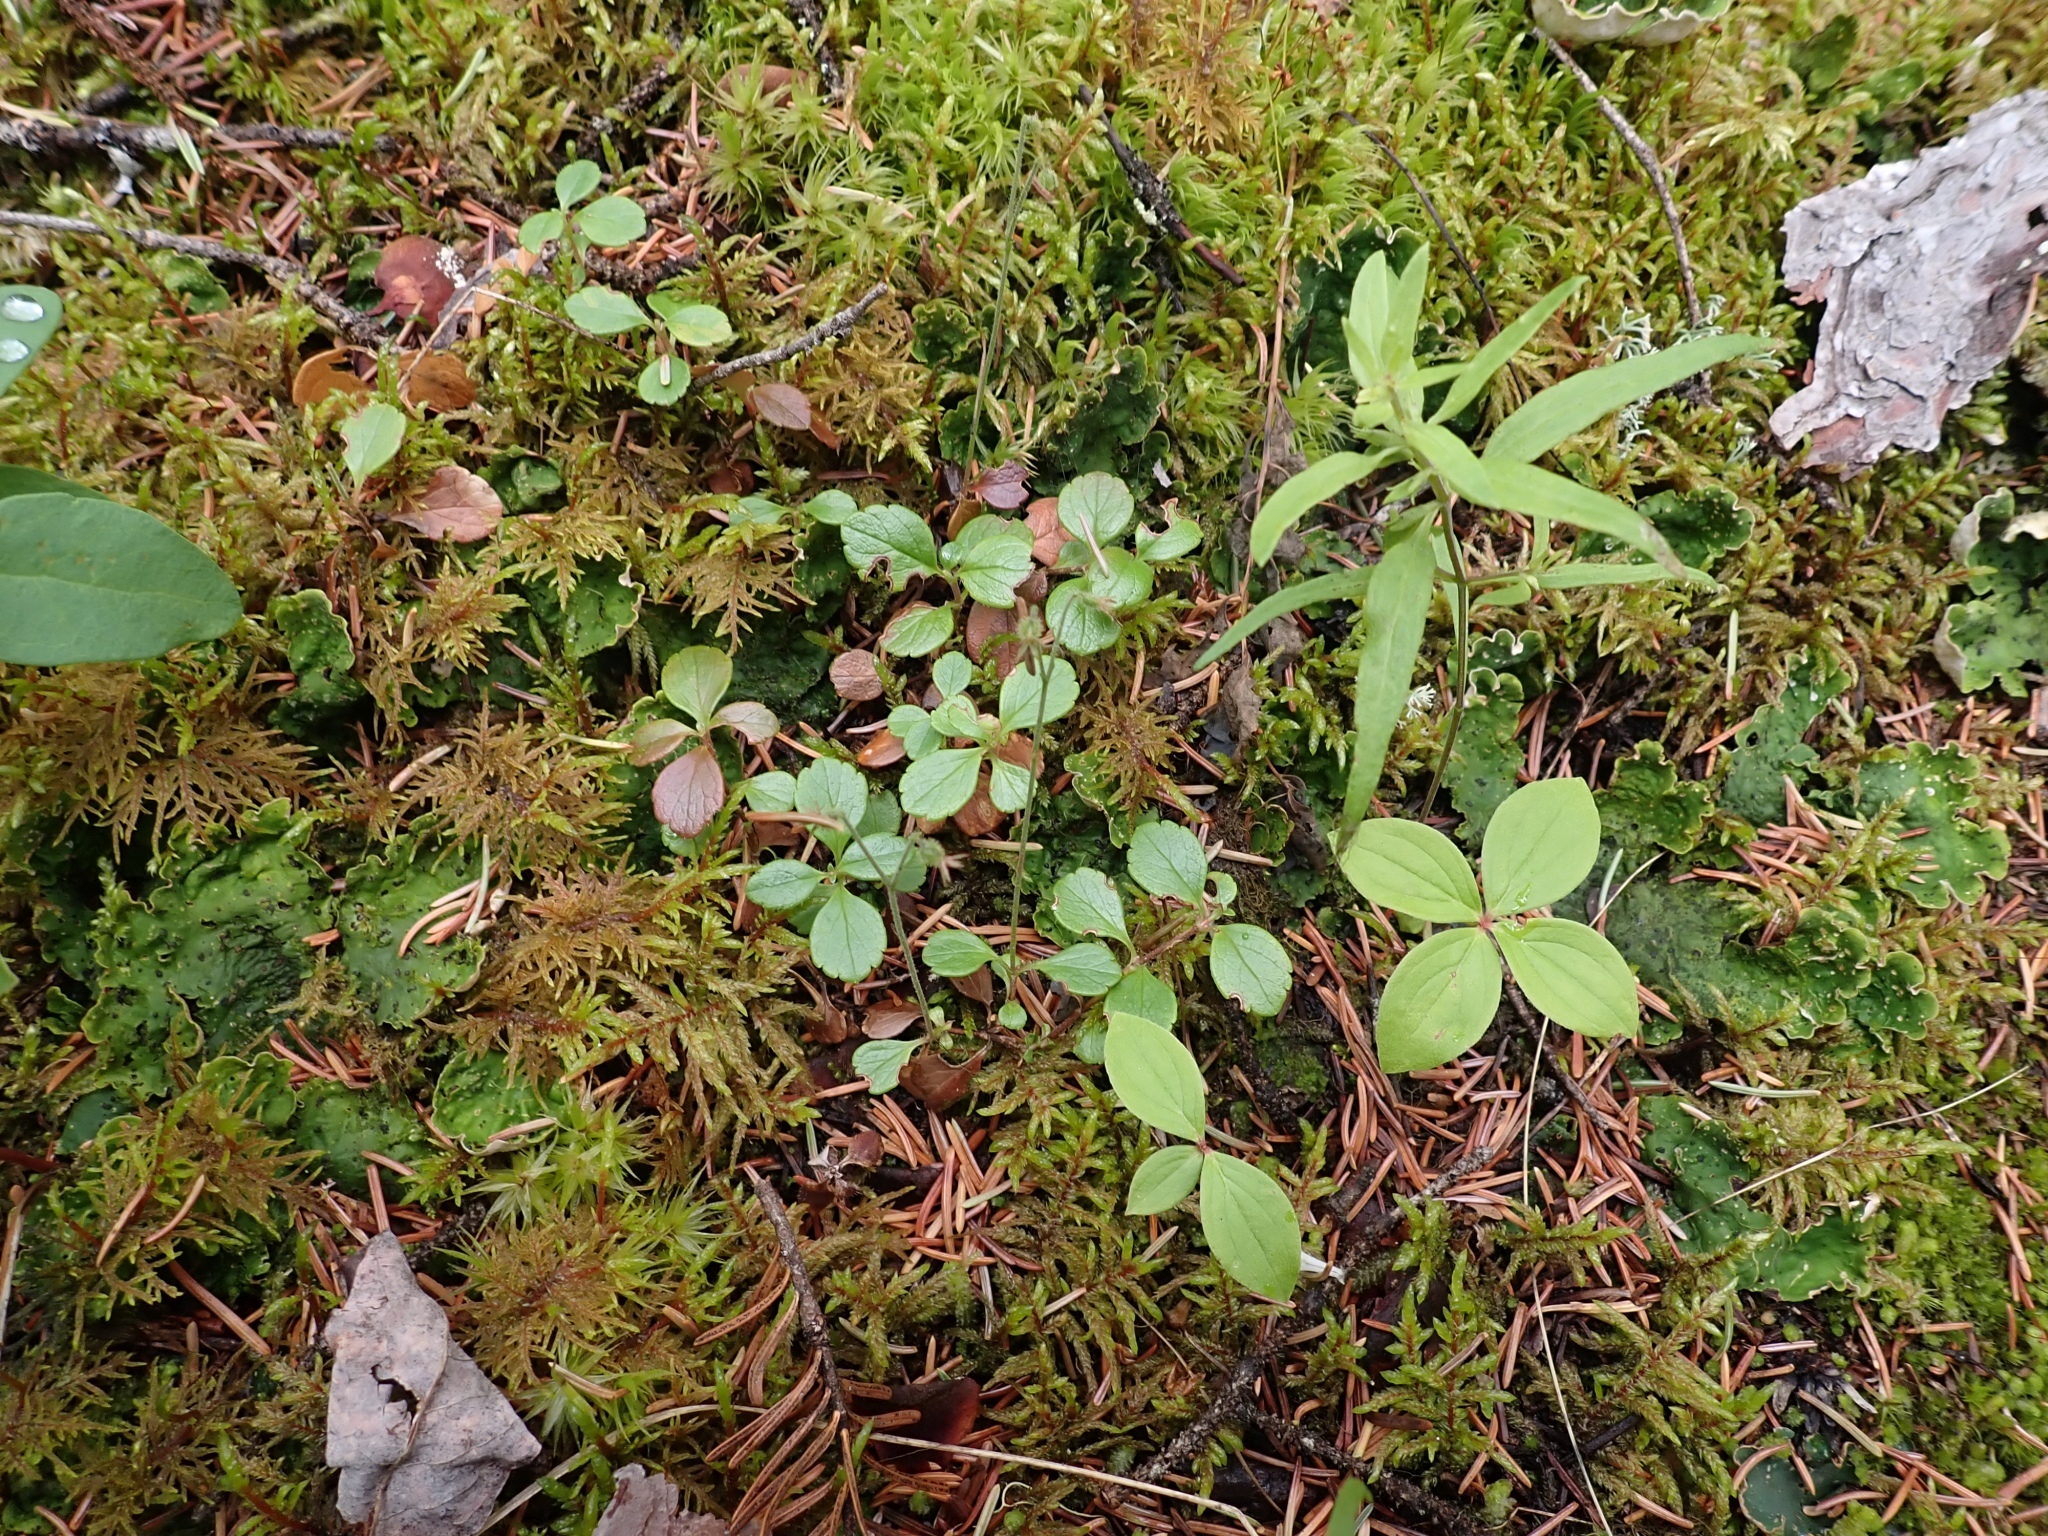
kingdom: Plantae
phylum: Tracheophyta
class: Magnoliopsida
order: Dipsacales
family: Caprifoliaceae
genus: Linnaea
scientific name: Linnaea borealis
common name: Twinflower
